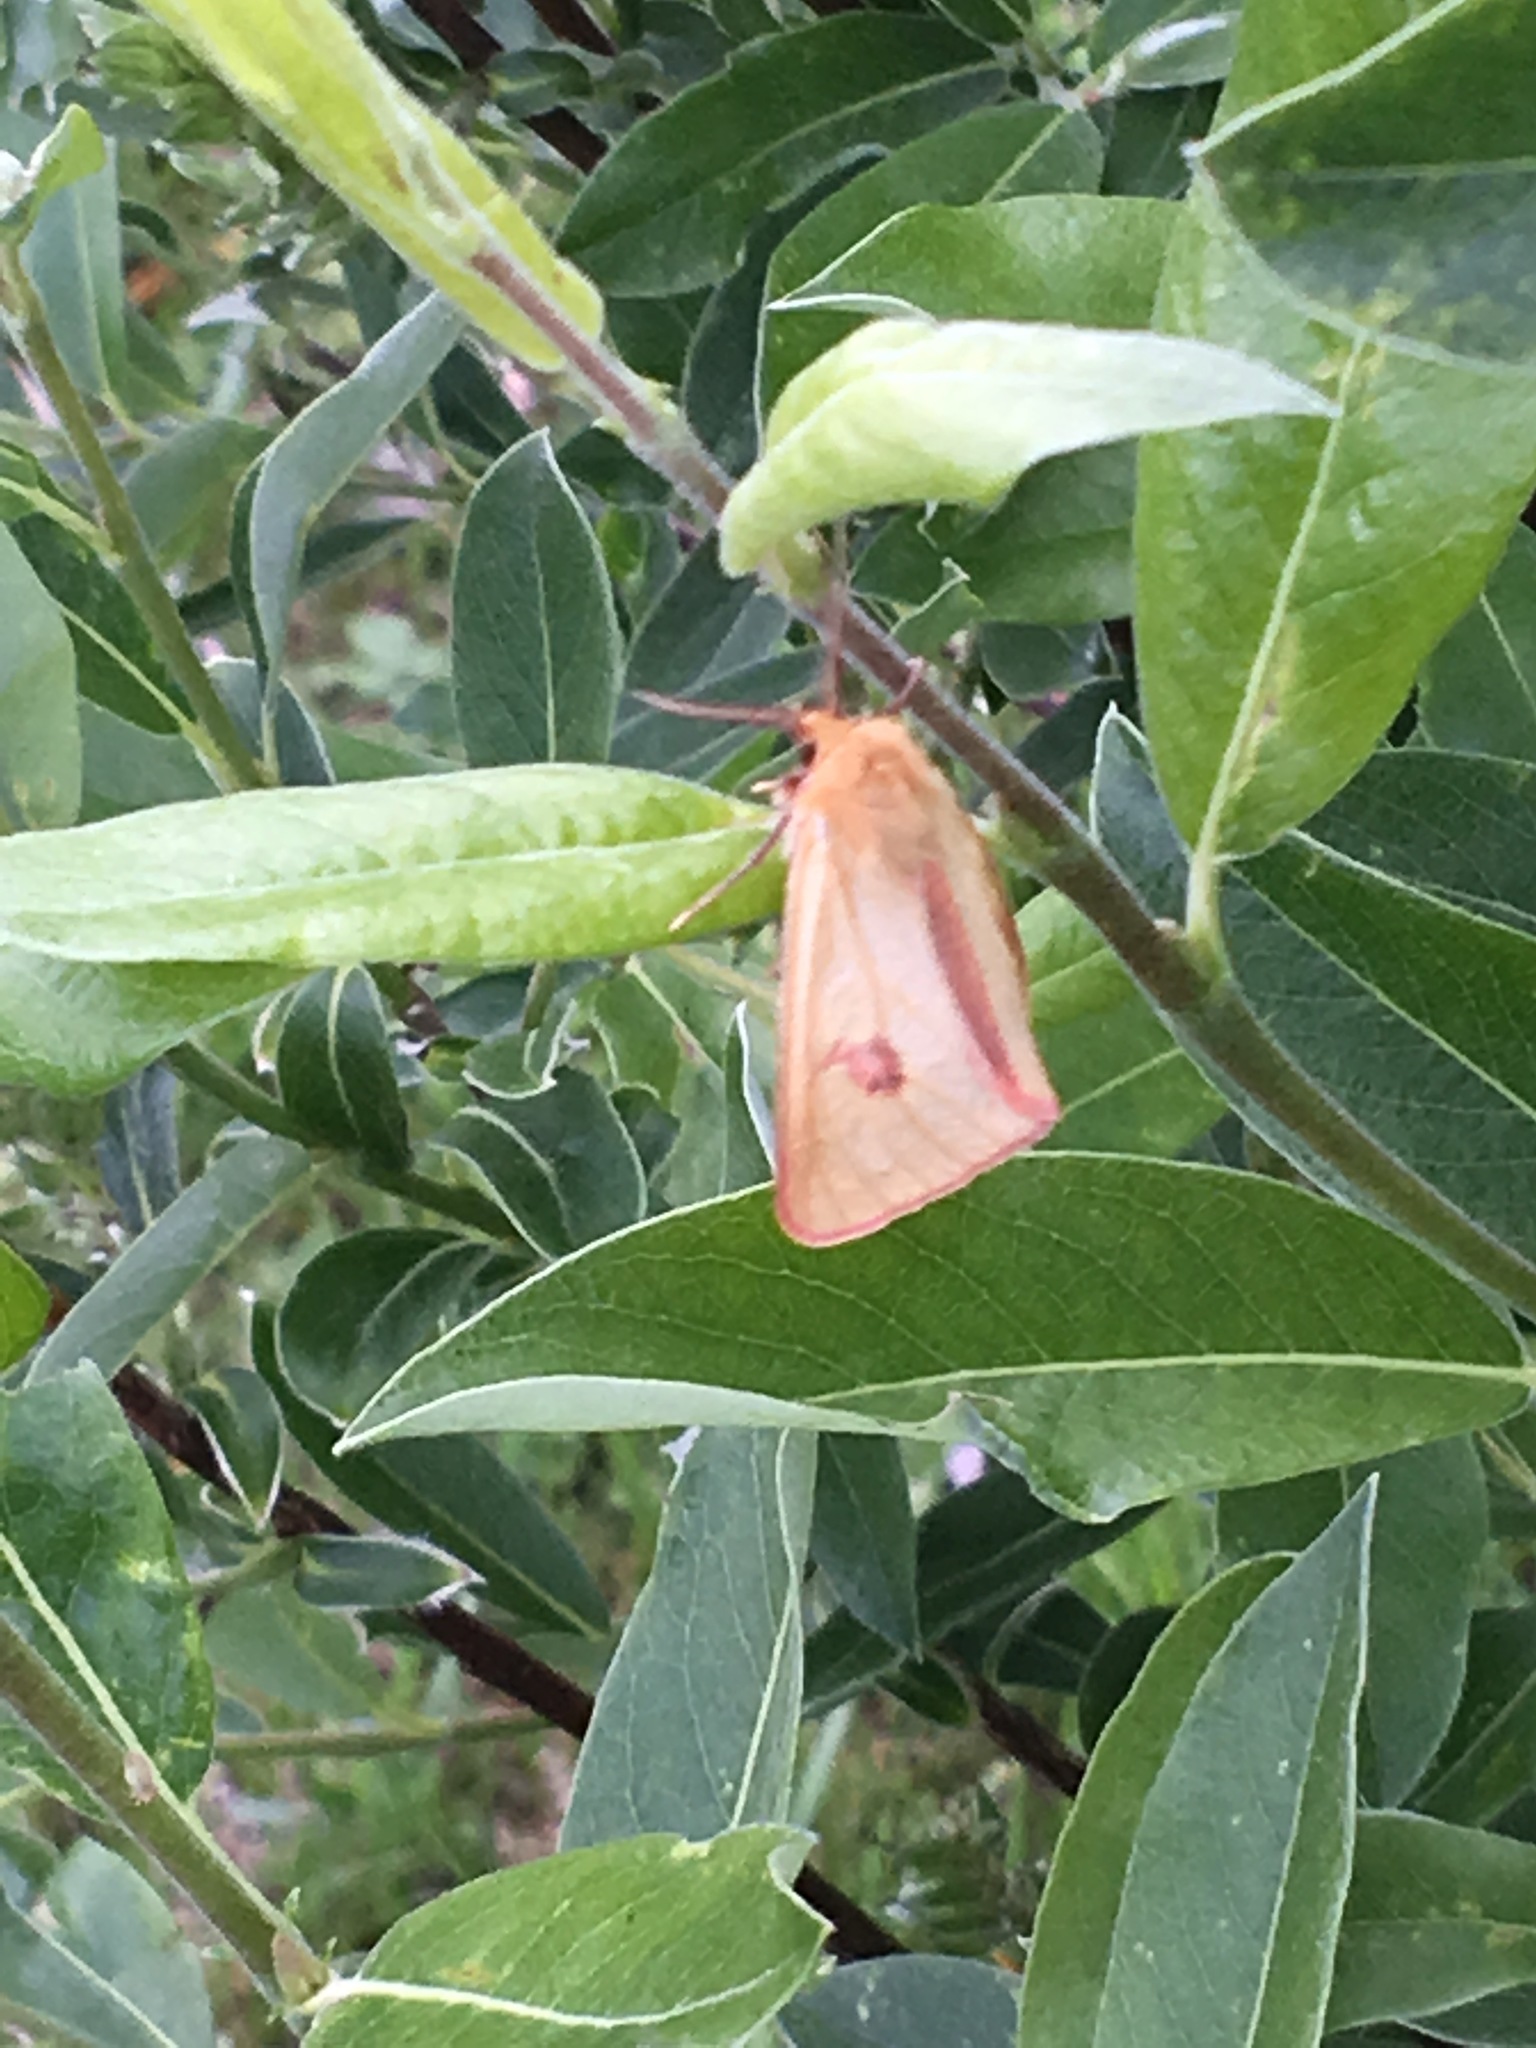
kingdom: Animalia
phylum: Arthropoda
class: Insecta
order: Lepidoptera
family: Erebidae
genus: Diacrisia
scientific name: Diacrisia sannio
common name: Clouded buff
